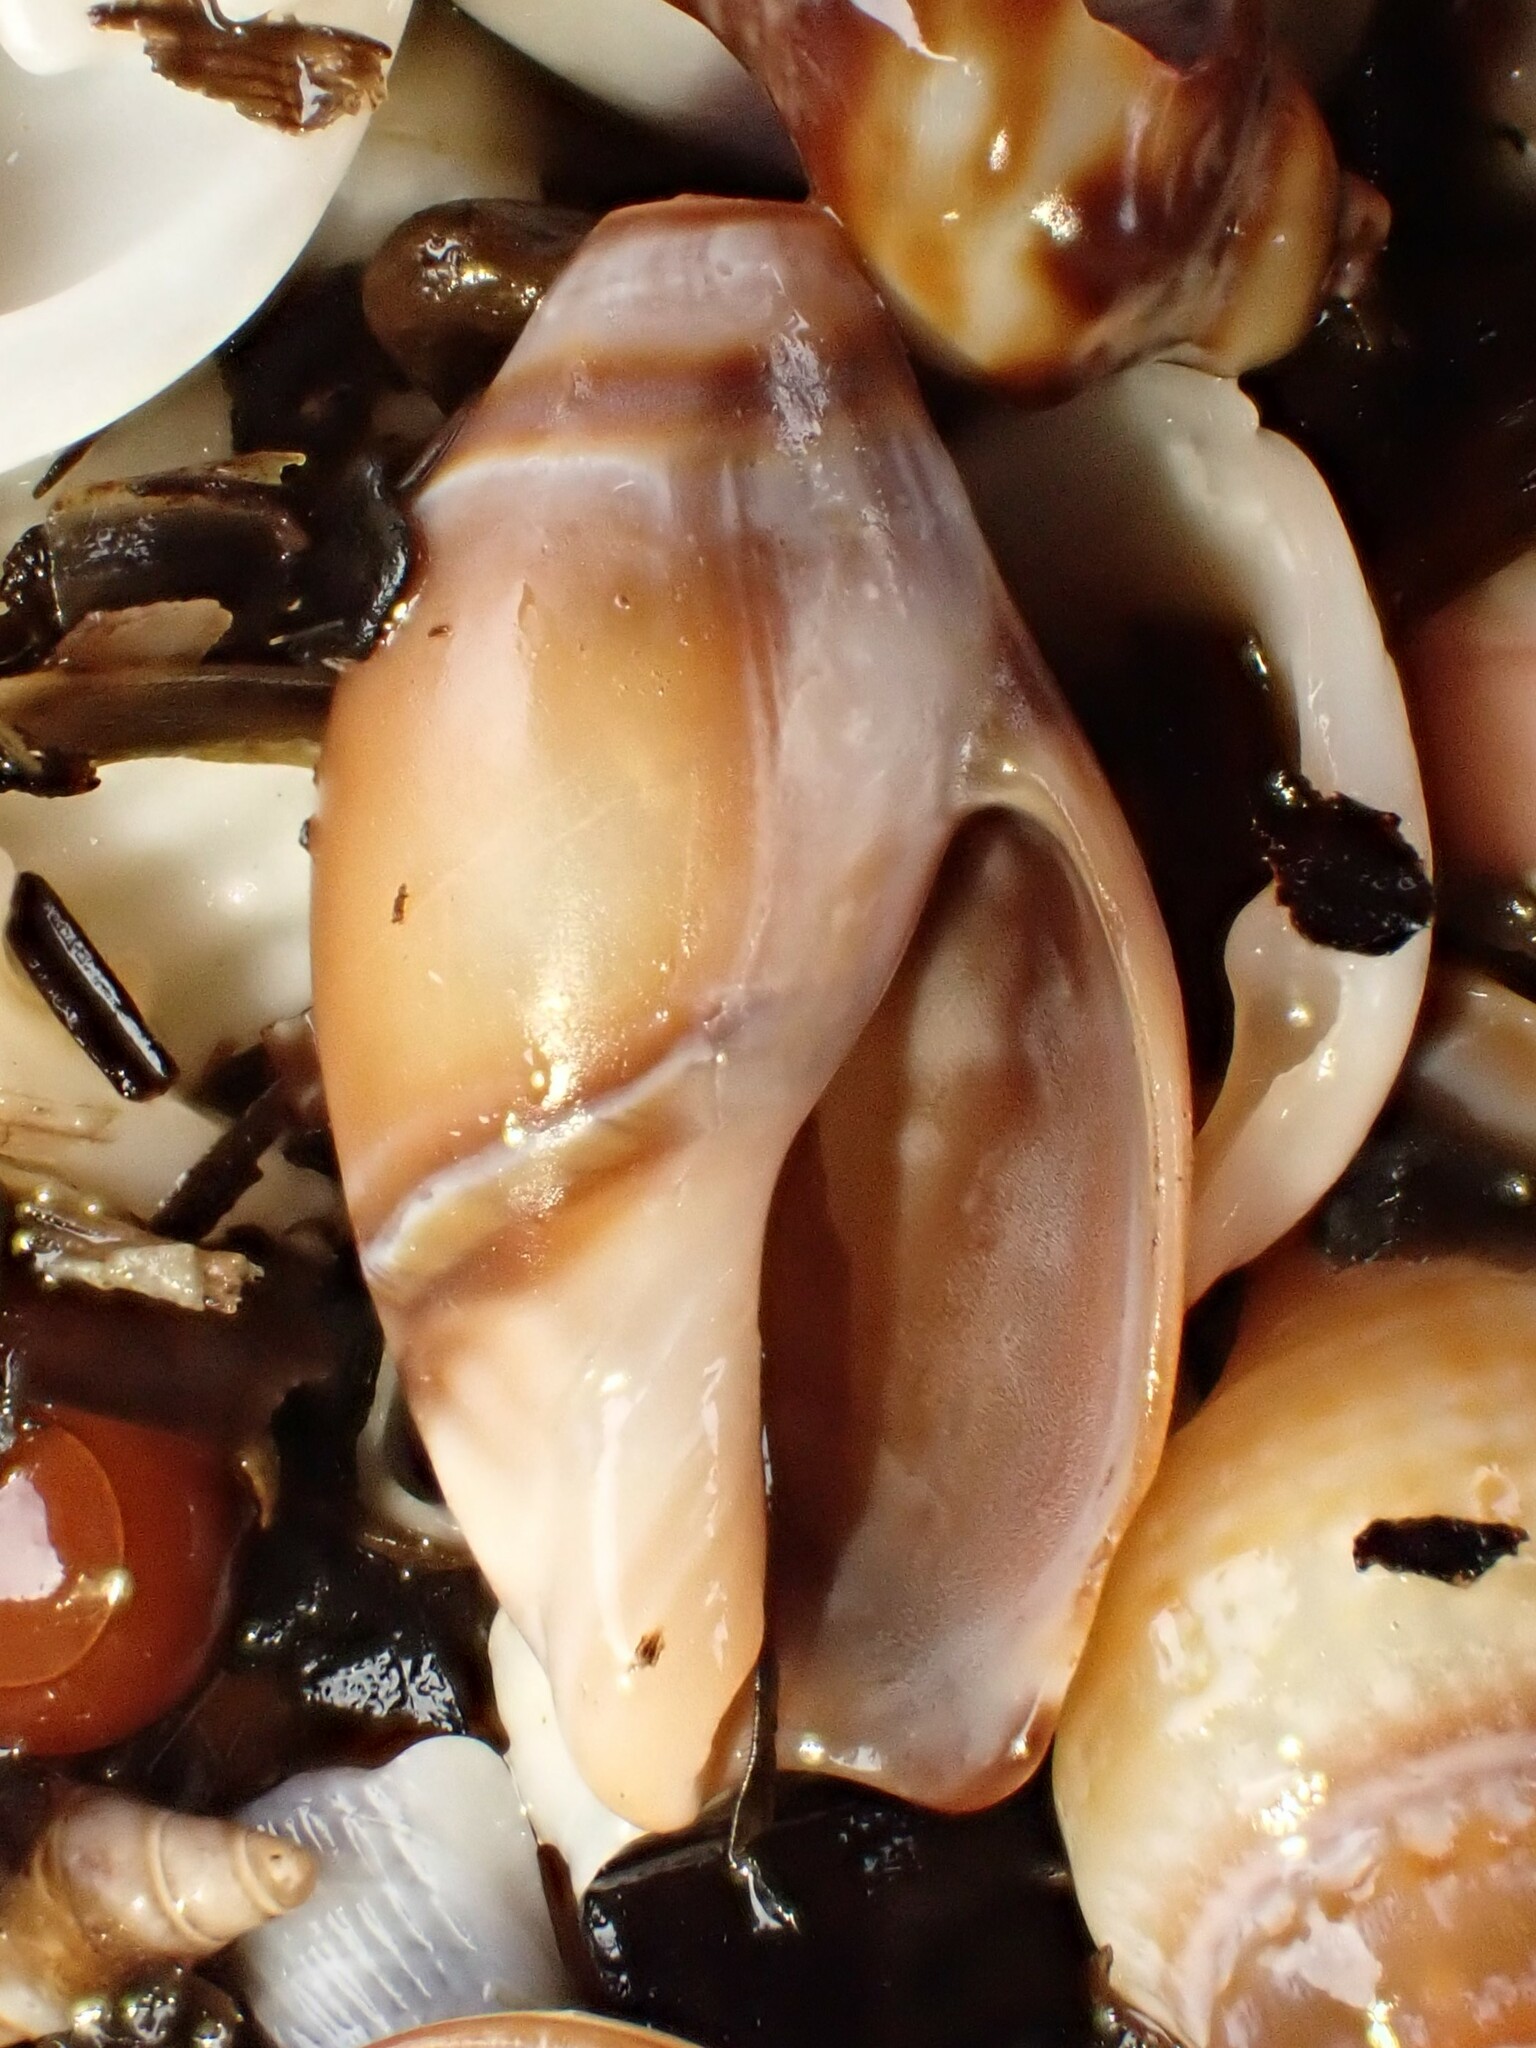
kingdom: Animalia
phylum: Mollusca
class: Gastropoda
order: Neogastropoda
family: Ancillariidae
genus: Amalda
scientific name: Amalda australis
